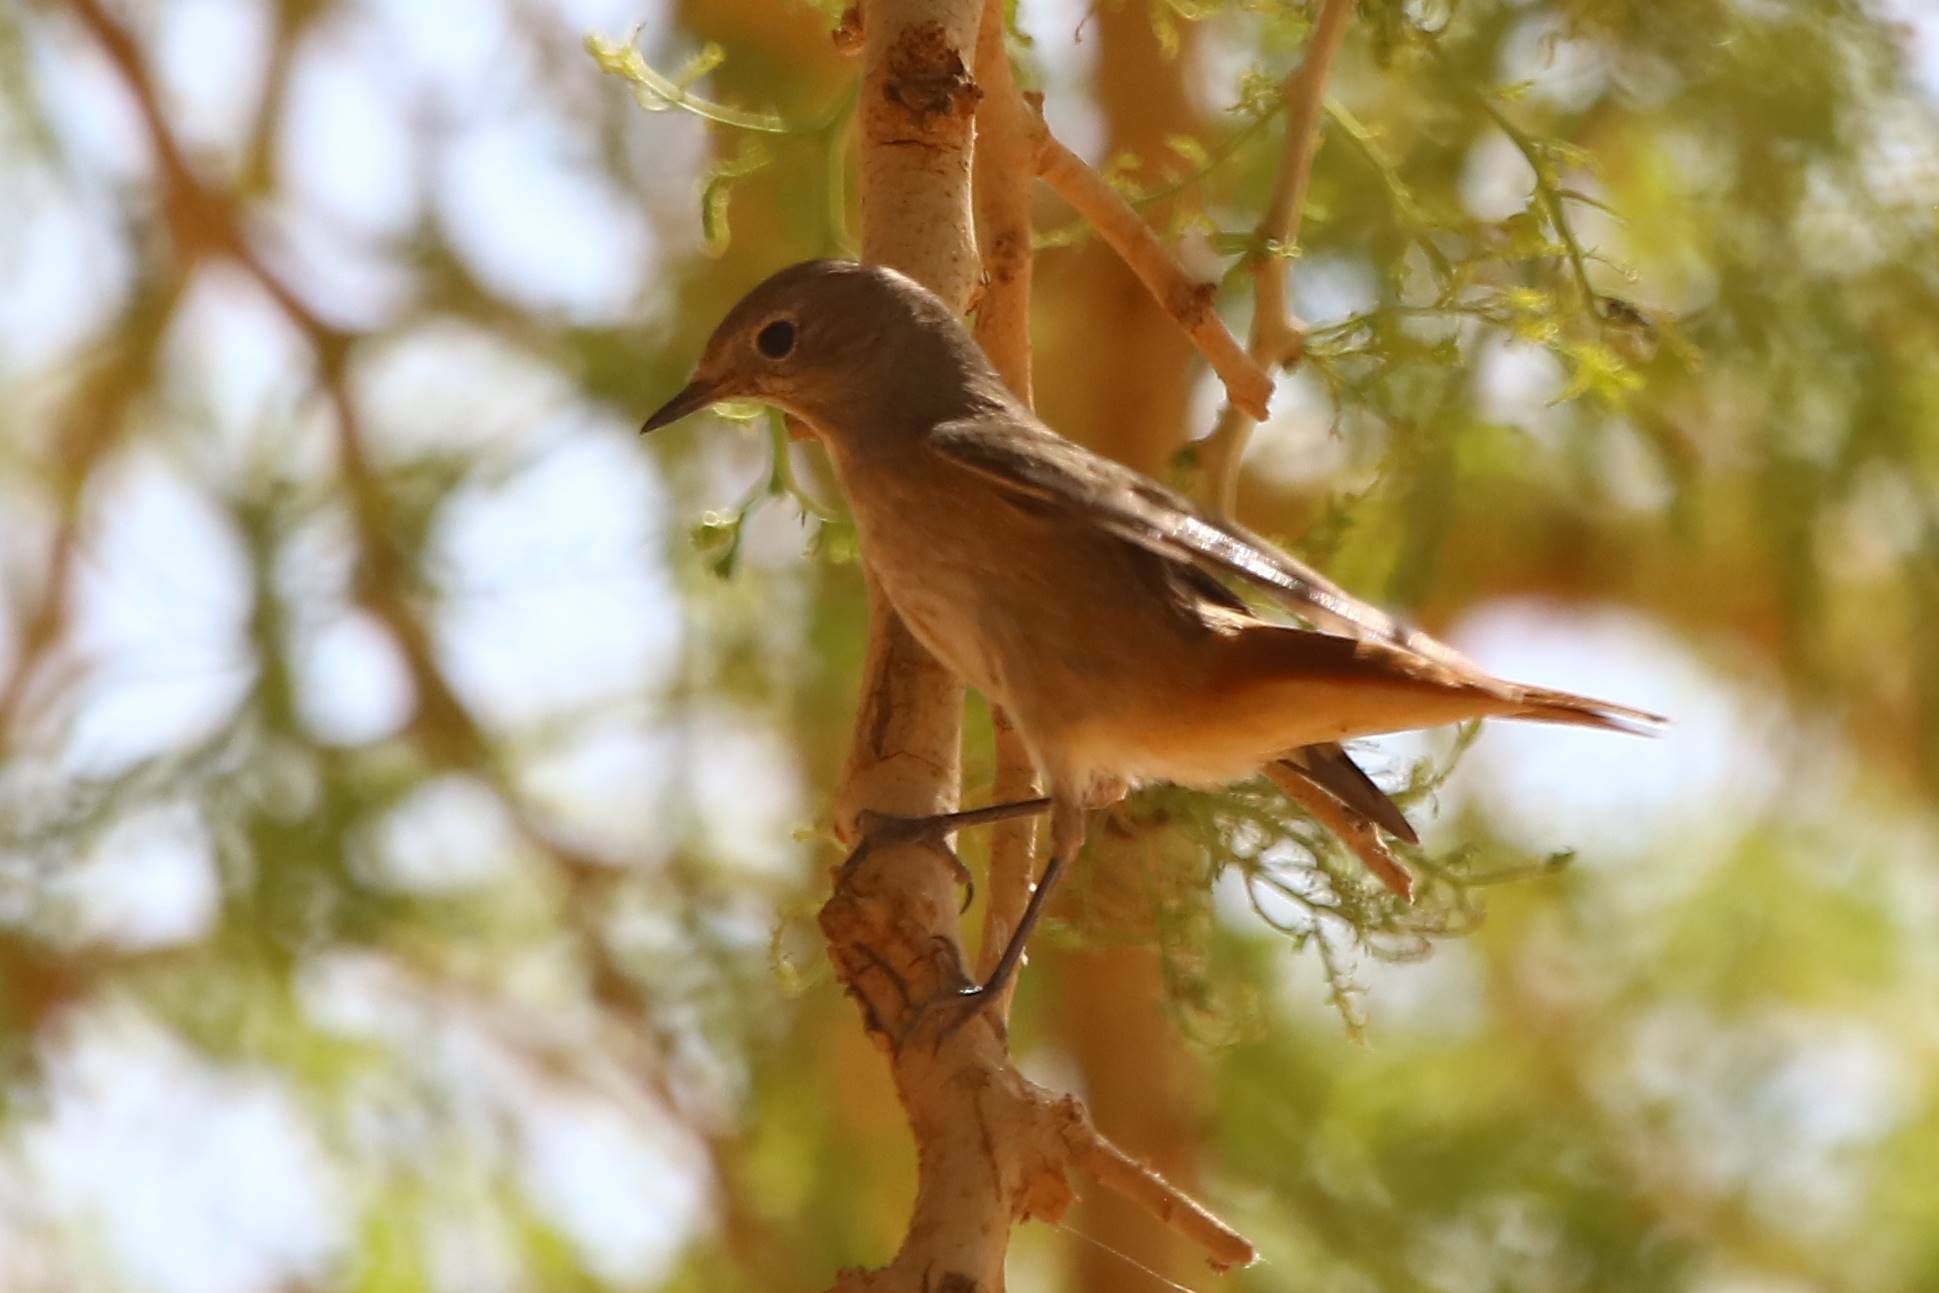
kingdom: Animalia
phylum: Chordata
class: Aves
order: Passeriformes
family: Muscicapidae
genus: Phoenicurus
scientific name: Phoenicurus phoenicurus
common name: Common redstart
